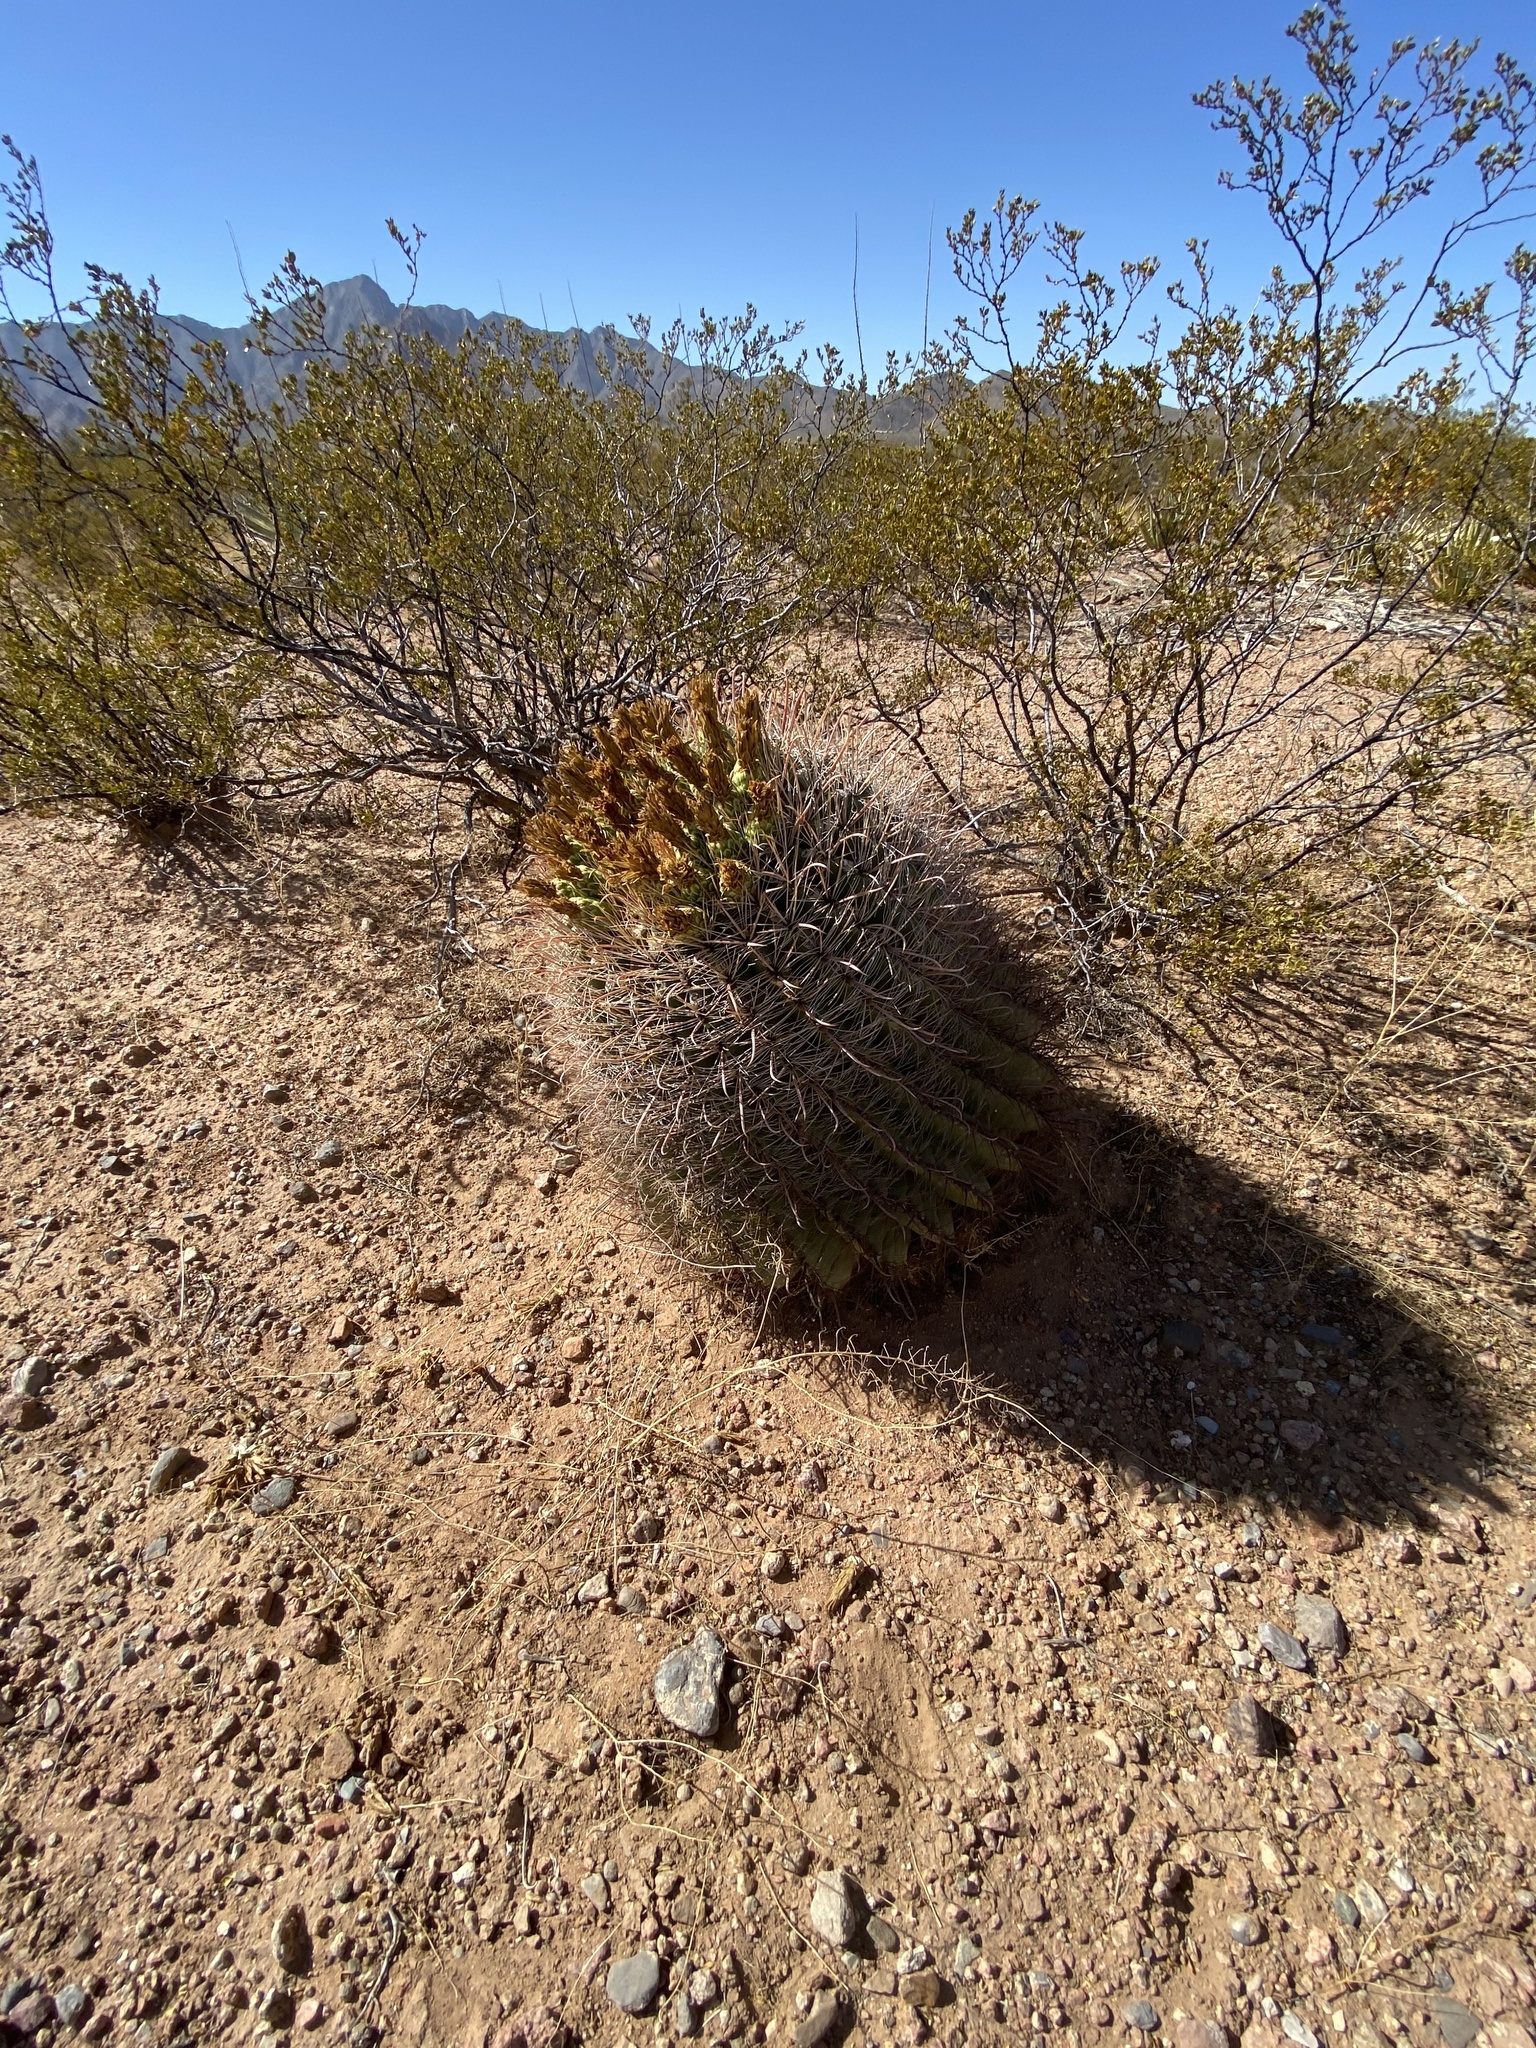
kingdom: Plantae
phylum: Tracheophyta
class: Magnoliopsida
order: Caryophyllales
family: Cactaceae
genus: Ferocactus
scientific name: Ferocactus wislizeni
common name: Candy barrel cactus
